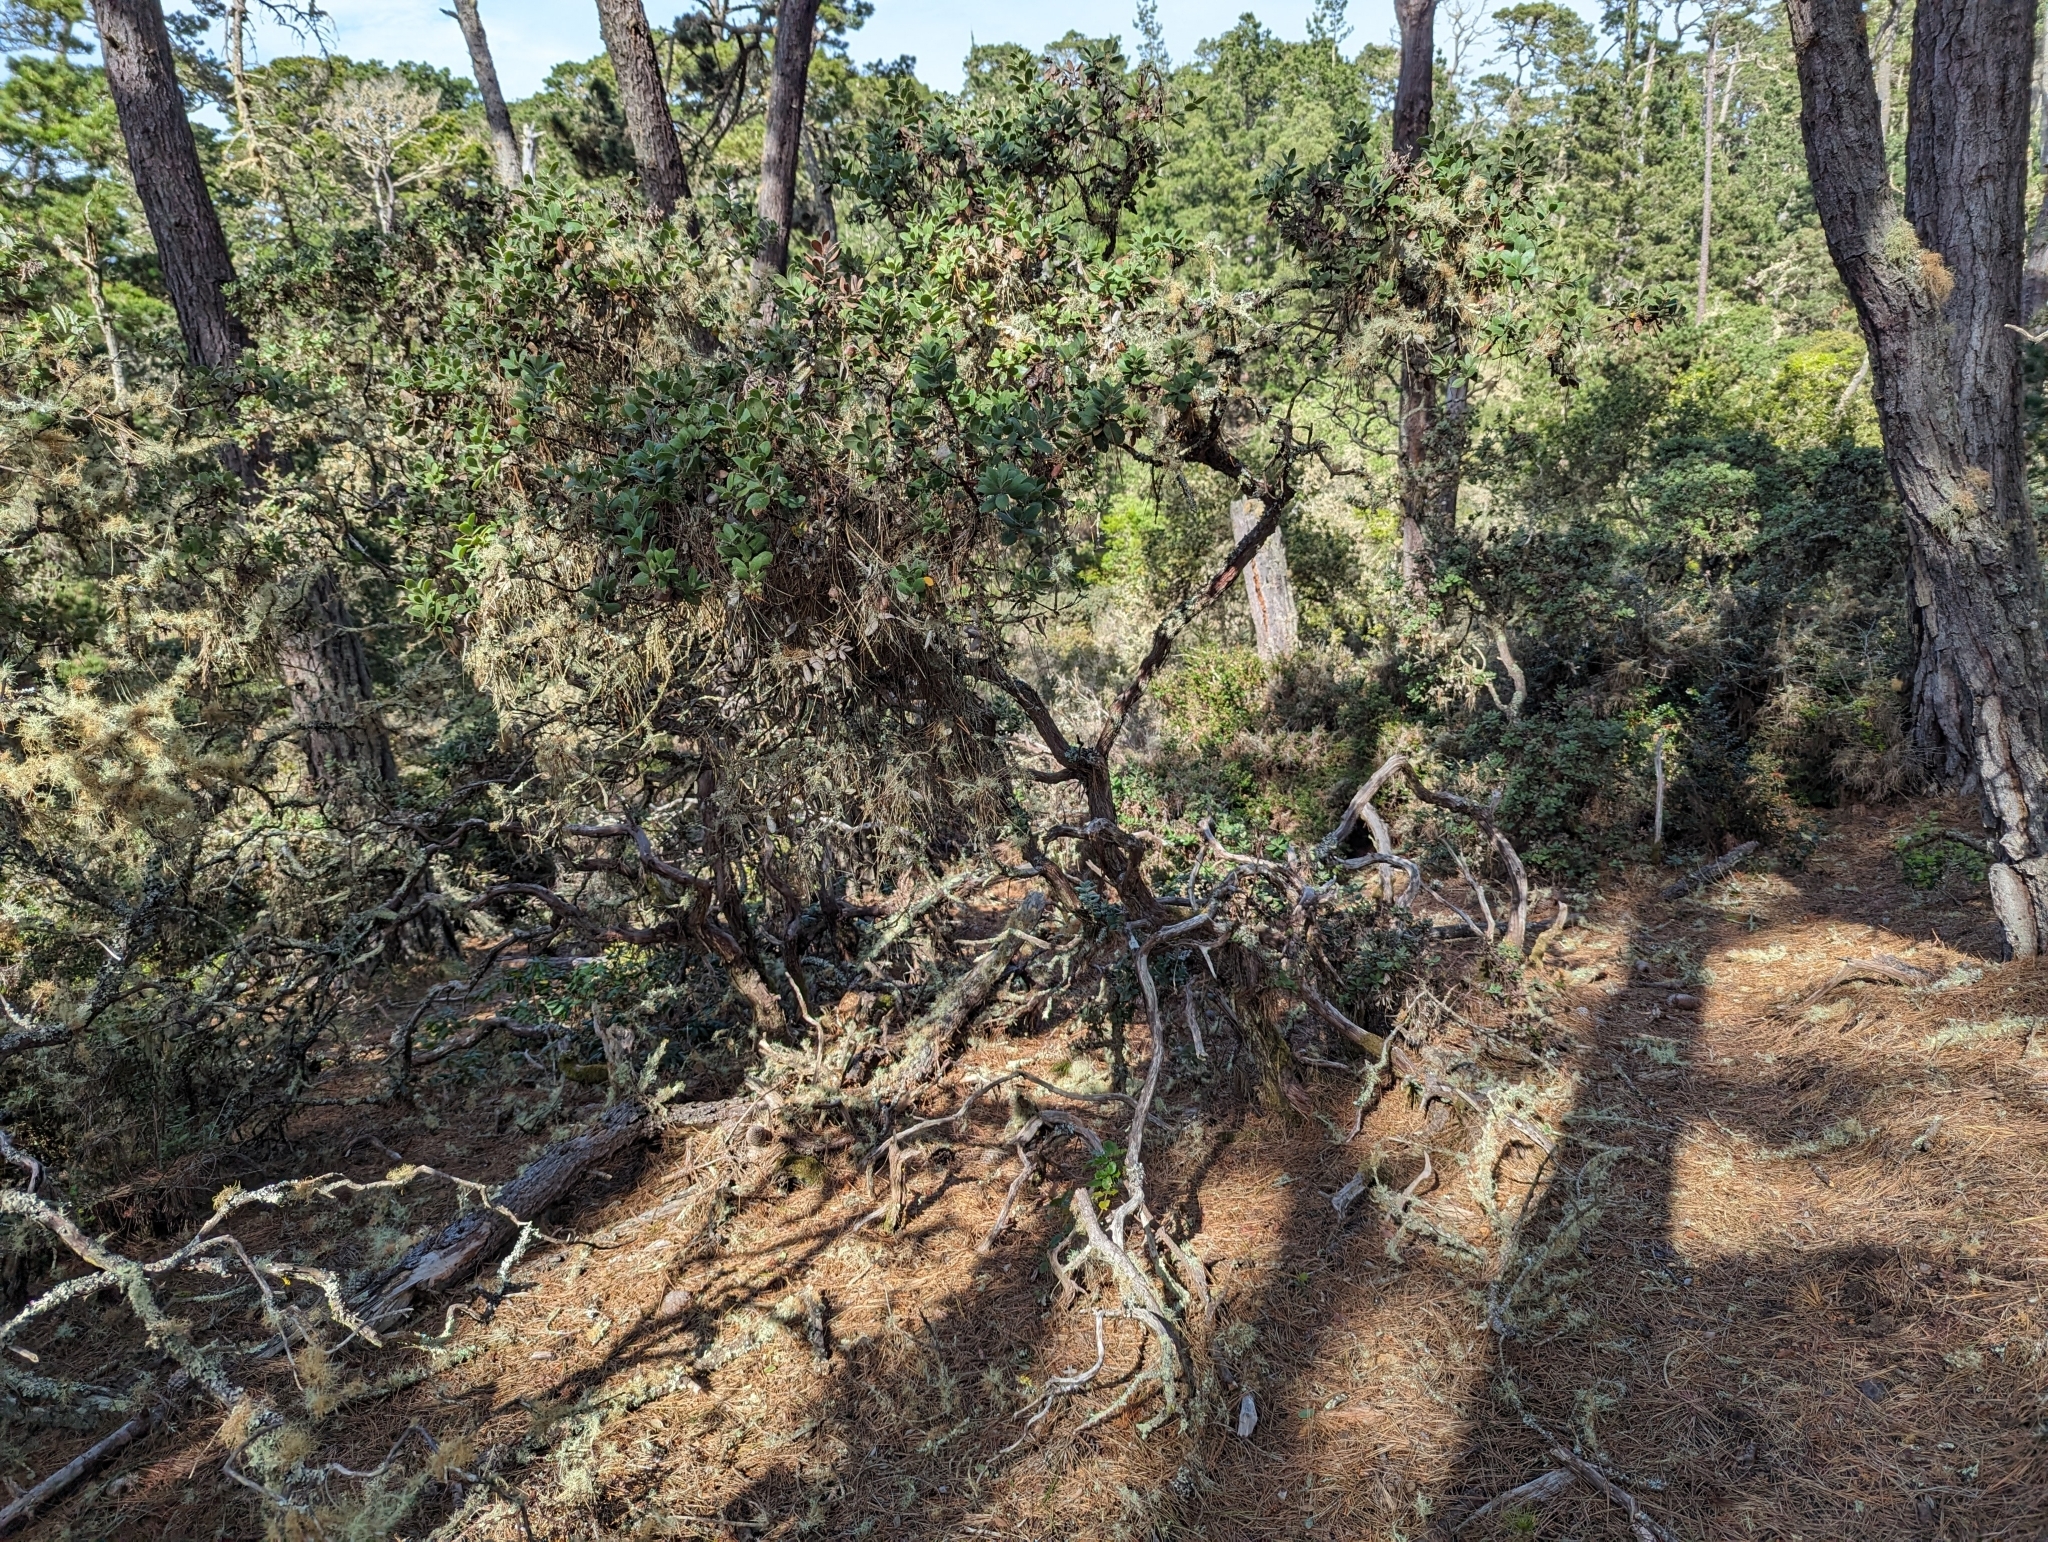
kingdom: Plantae
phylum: Tracheophyta
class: Magnoliopsida
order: Ericales
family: Ericaceae
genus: Arctostaphylos
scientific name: Arctostaphylos tomentosa
